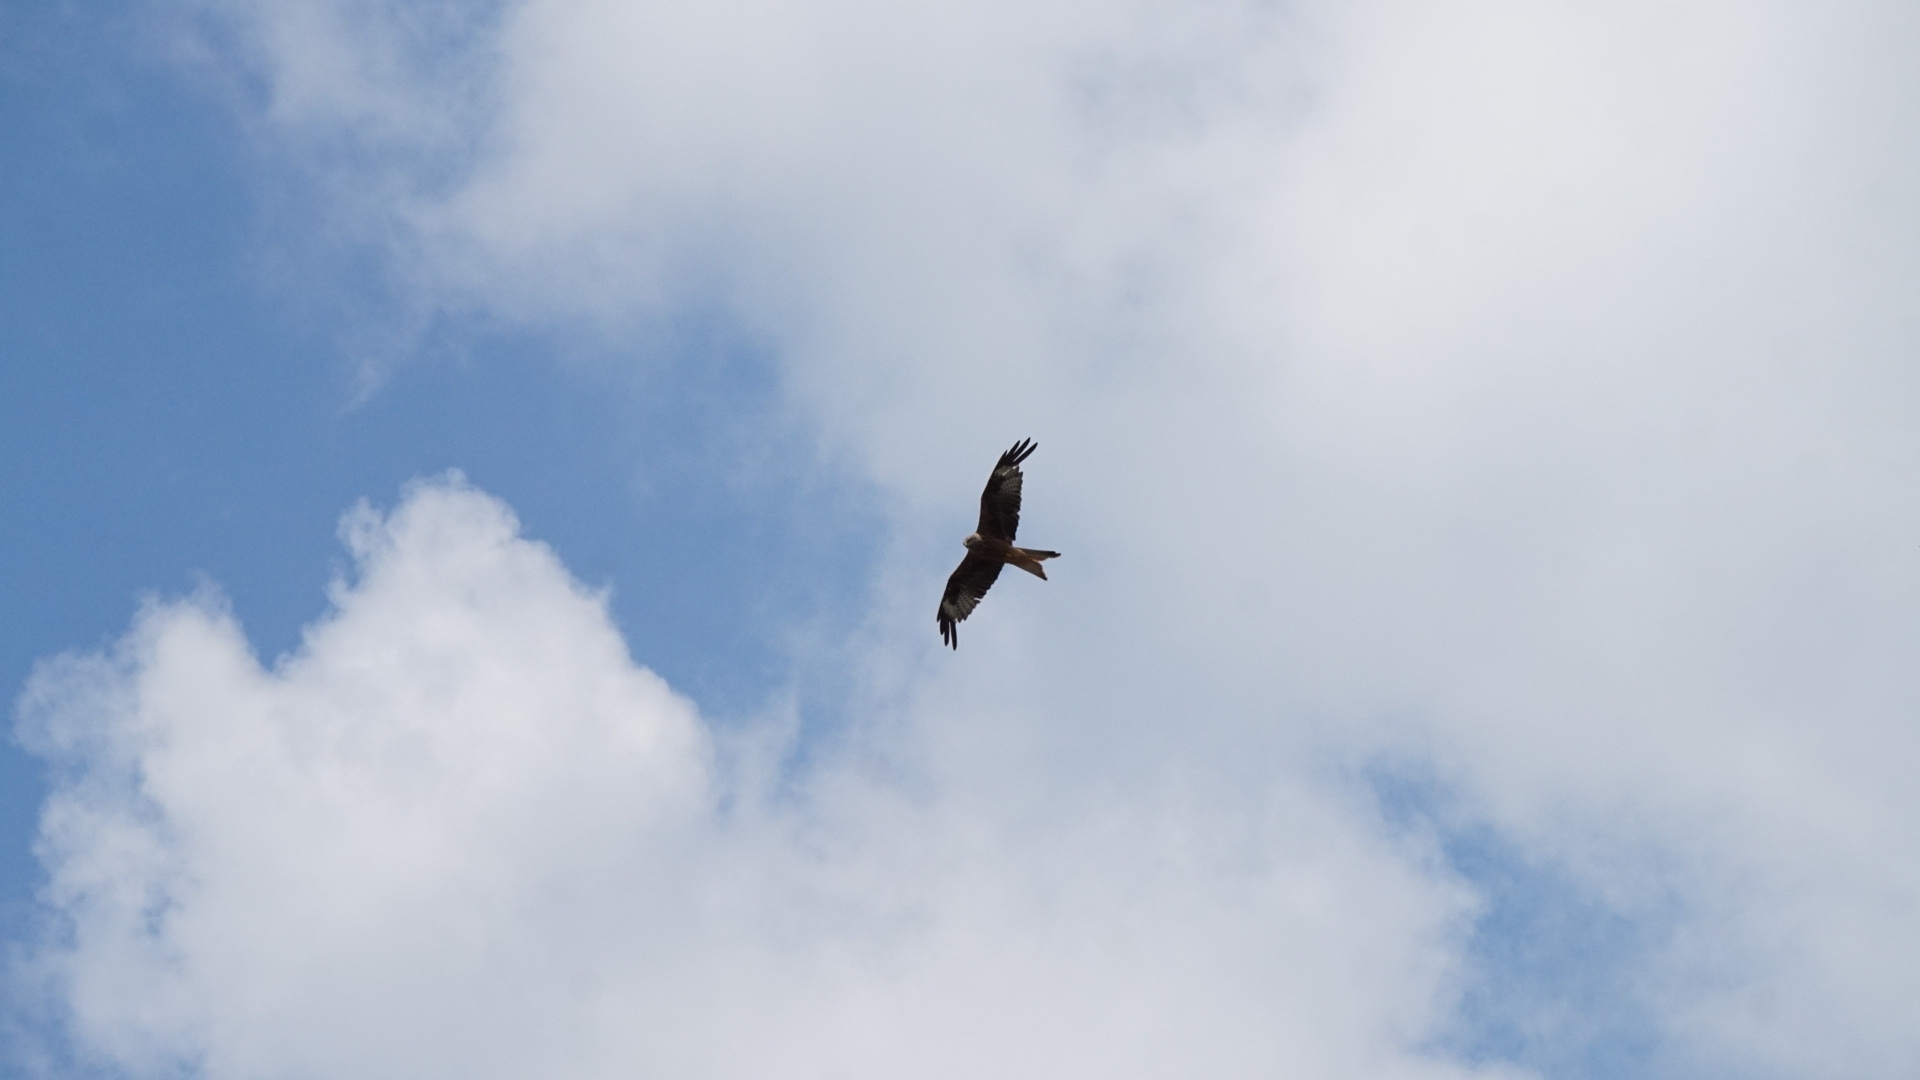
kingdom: Animalia
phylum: Chordata
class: Aves
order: Accipitriformes
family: Accipitridae
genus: Milvus
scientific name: Milvus milvus
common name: Red kite
